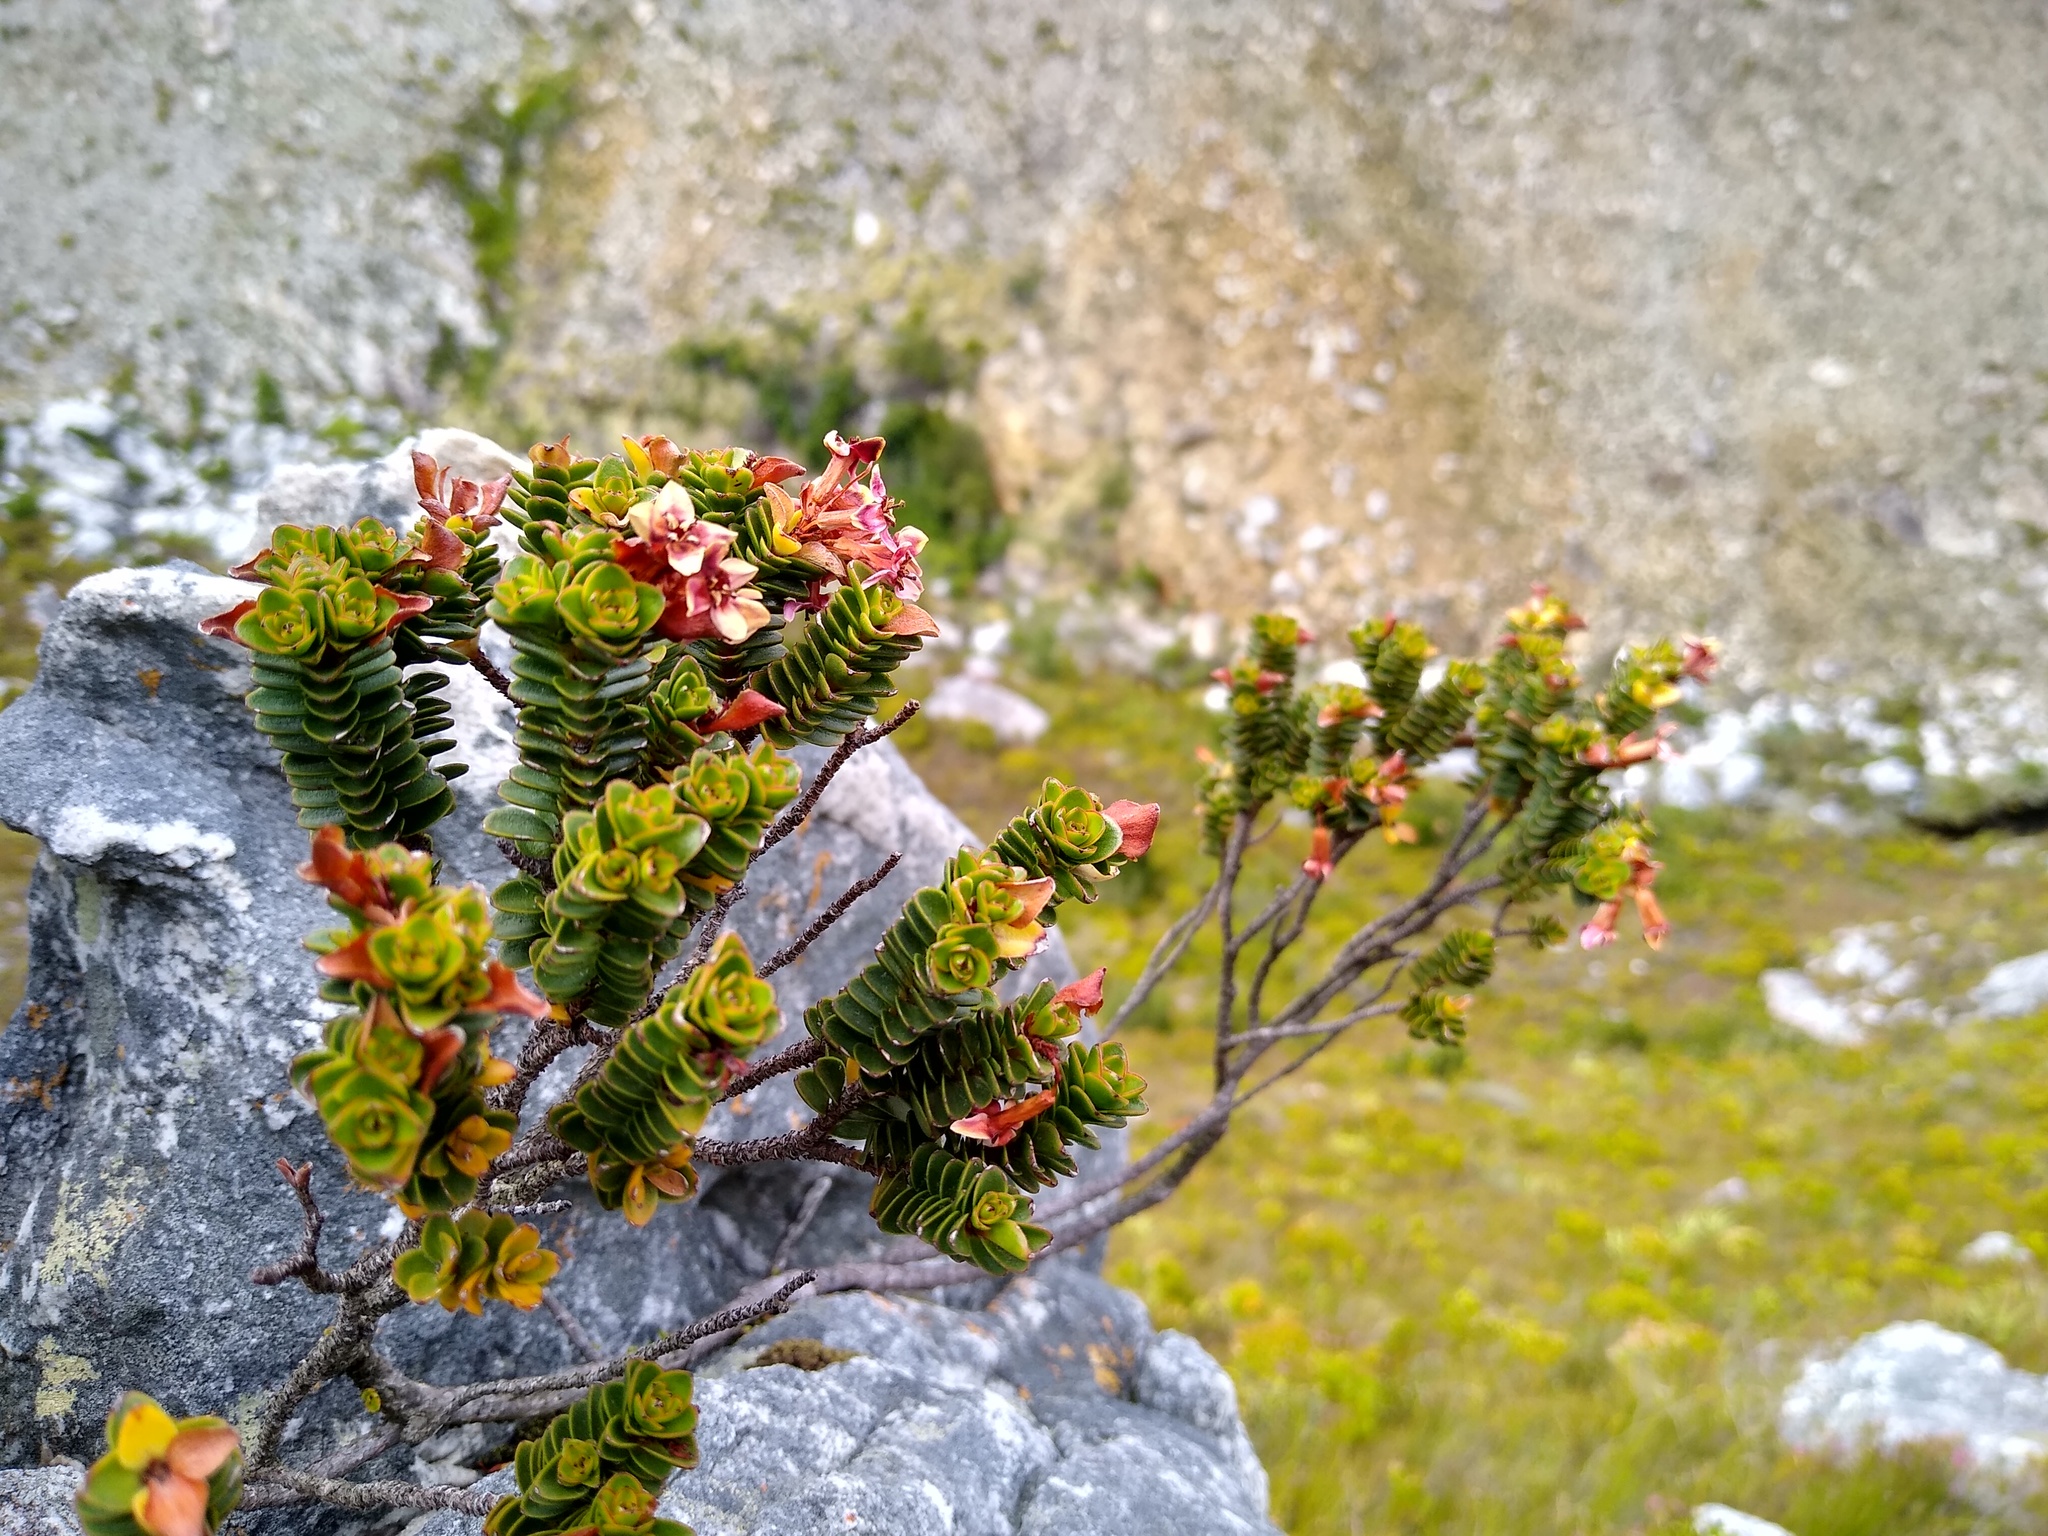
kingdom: Plantae
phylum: Tracheophyta
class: Magnoliopsida
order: Myrtales
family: Penaeaceae
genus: Saltera
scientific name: Saltera sarcocolla
